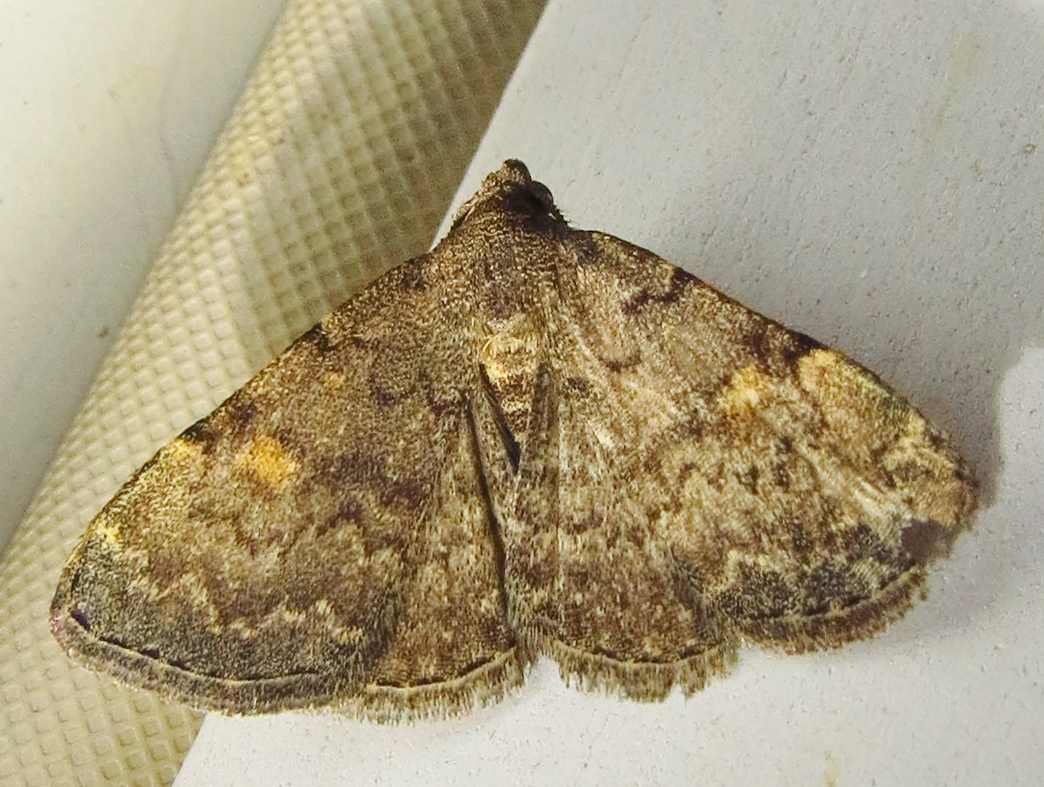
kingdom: Animalia
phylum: Arthropoda
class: Insecta
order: Lepidoptera
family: Erebidae
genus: Idia
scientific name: Idia aemula
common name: Common idia moth
